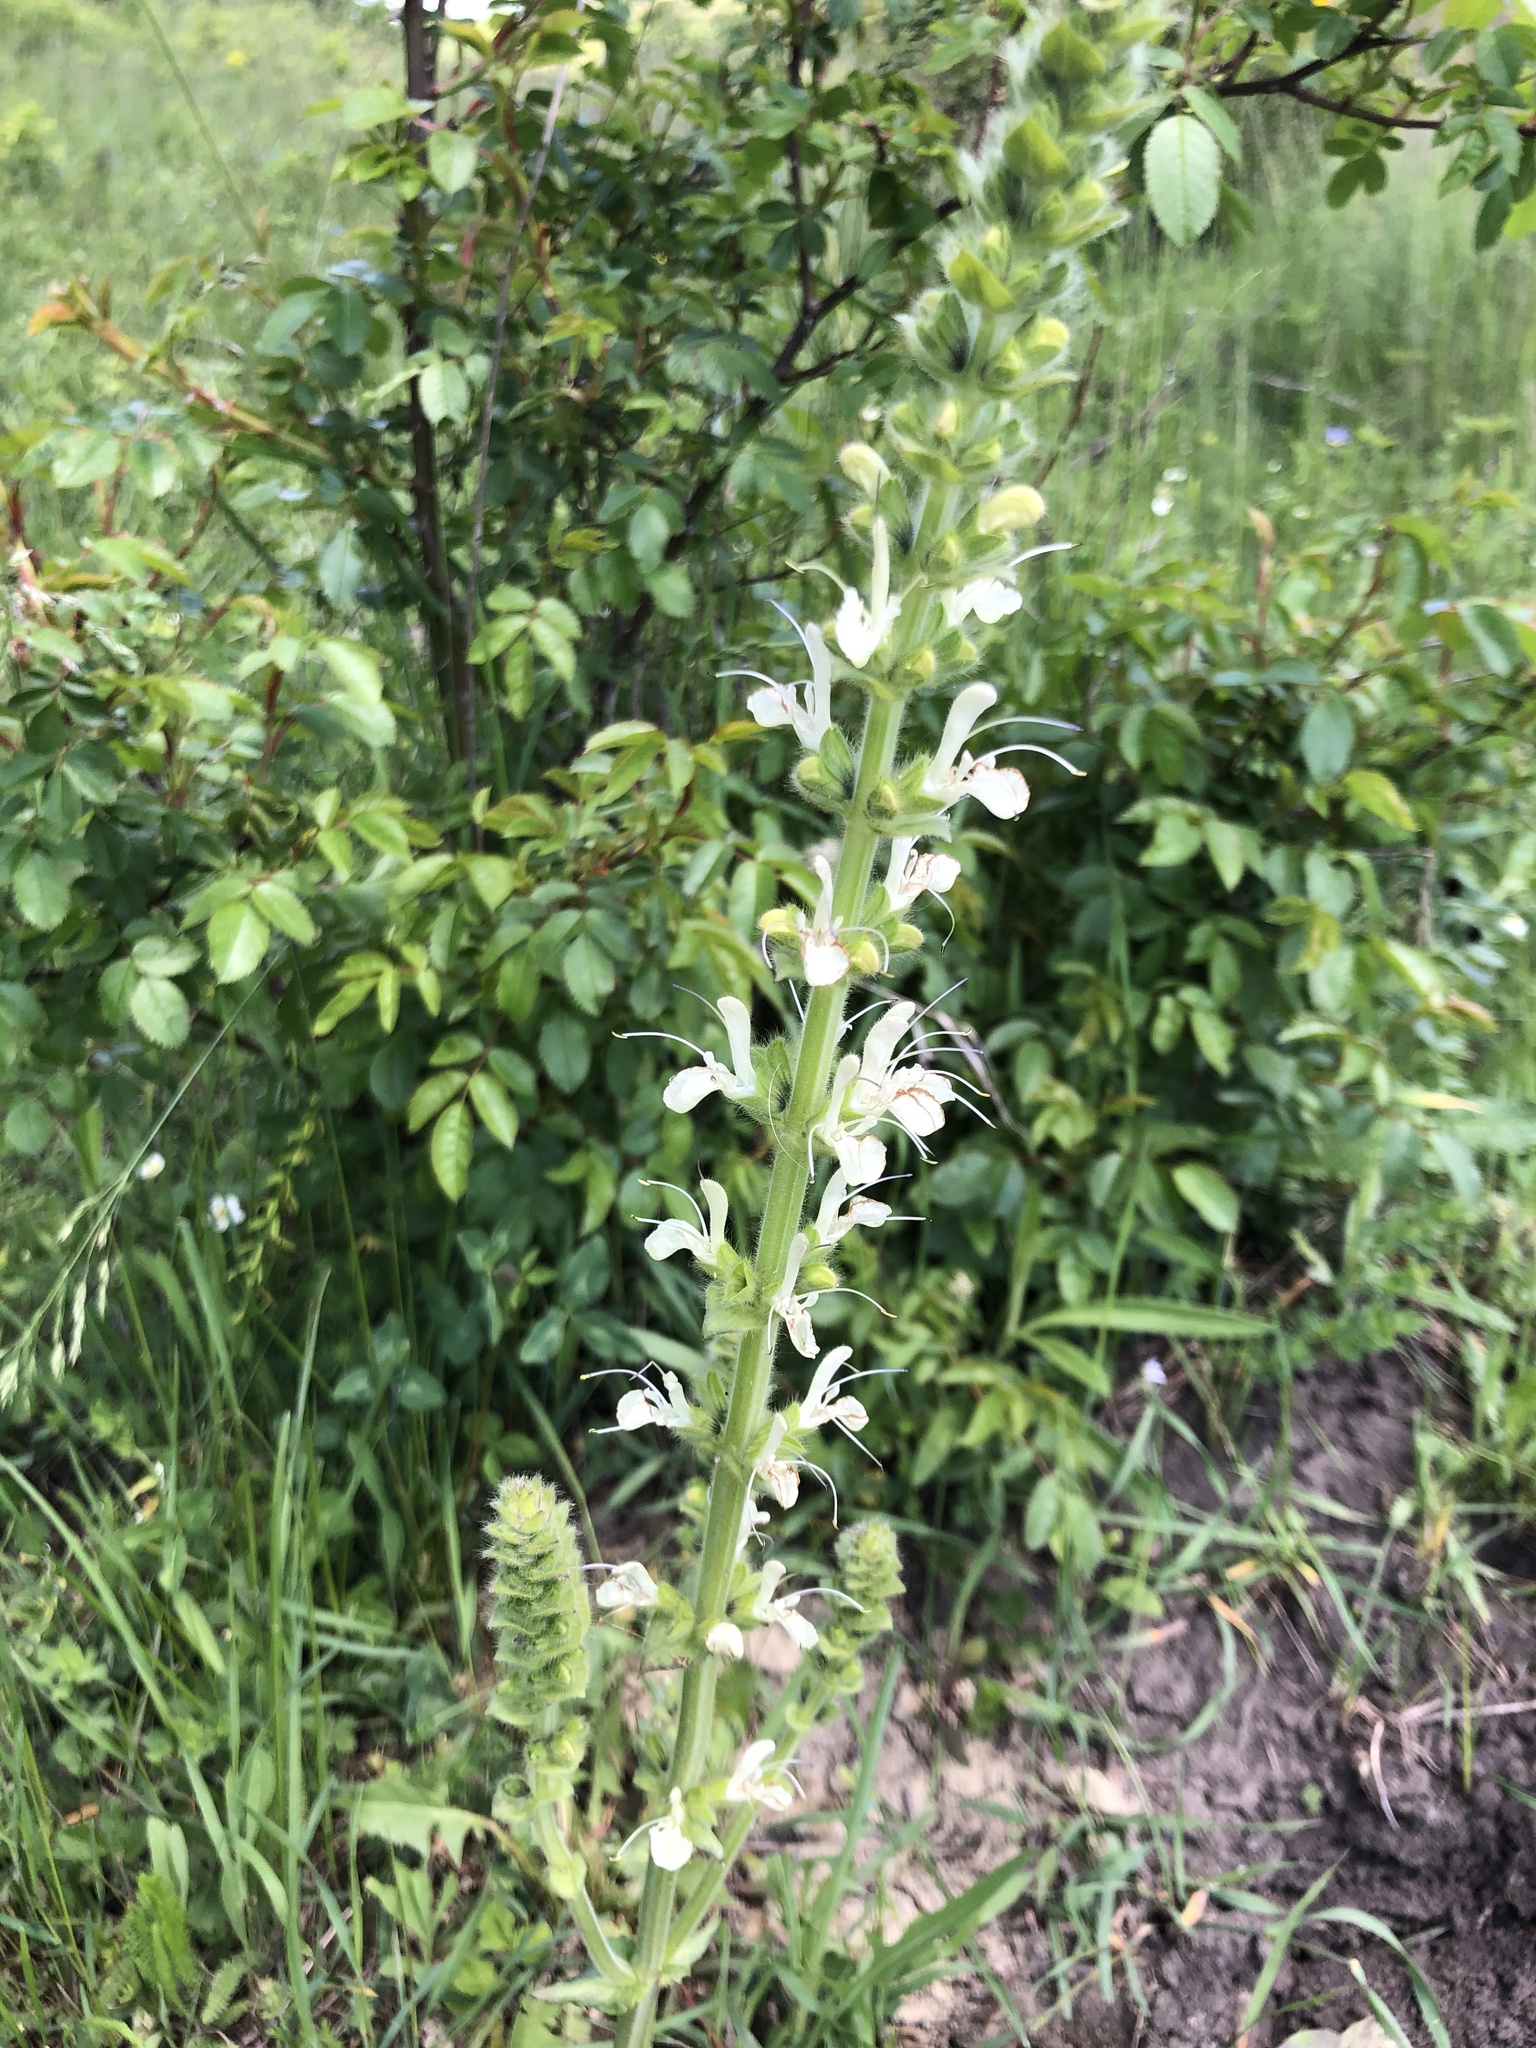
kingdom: Plantae
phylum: Tracheophyta
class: Magnoliopsida
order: Lamiales
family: Lamiaceae
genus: Salvia
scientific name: Salvia austriaca
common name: Austrian sage
